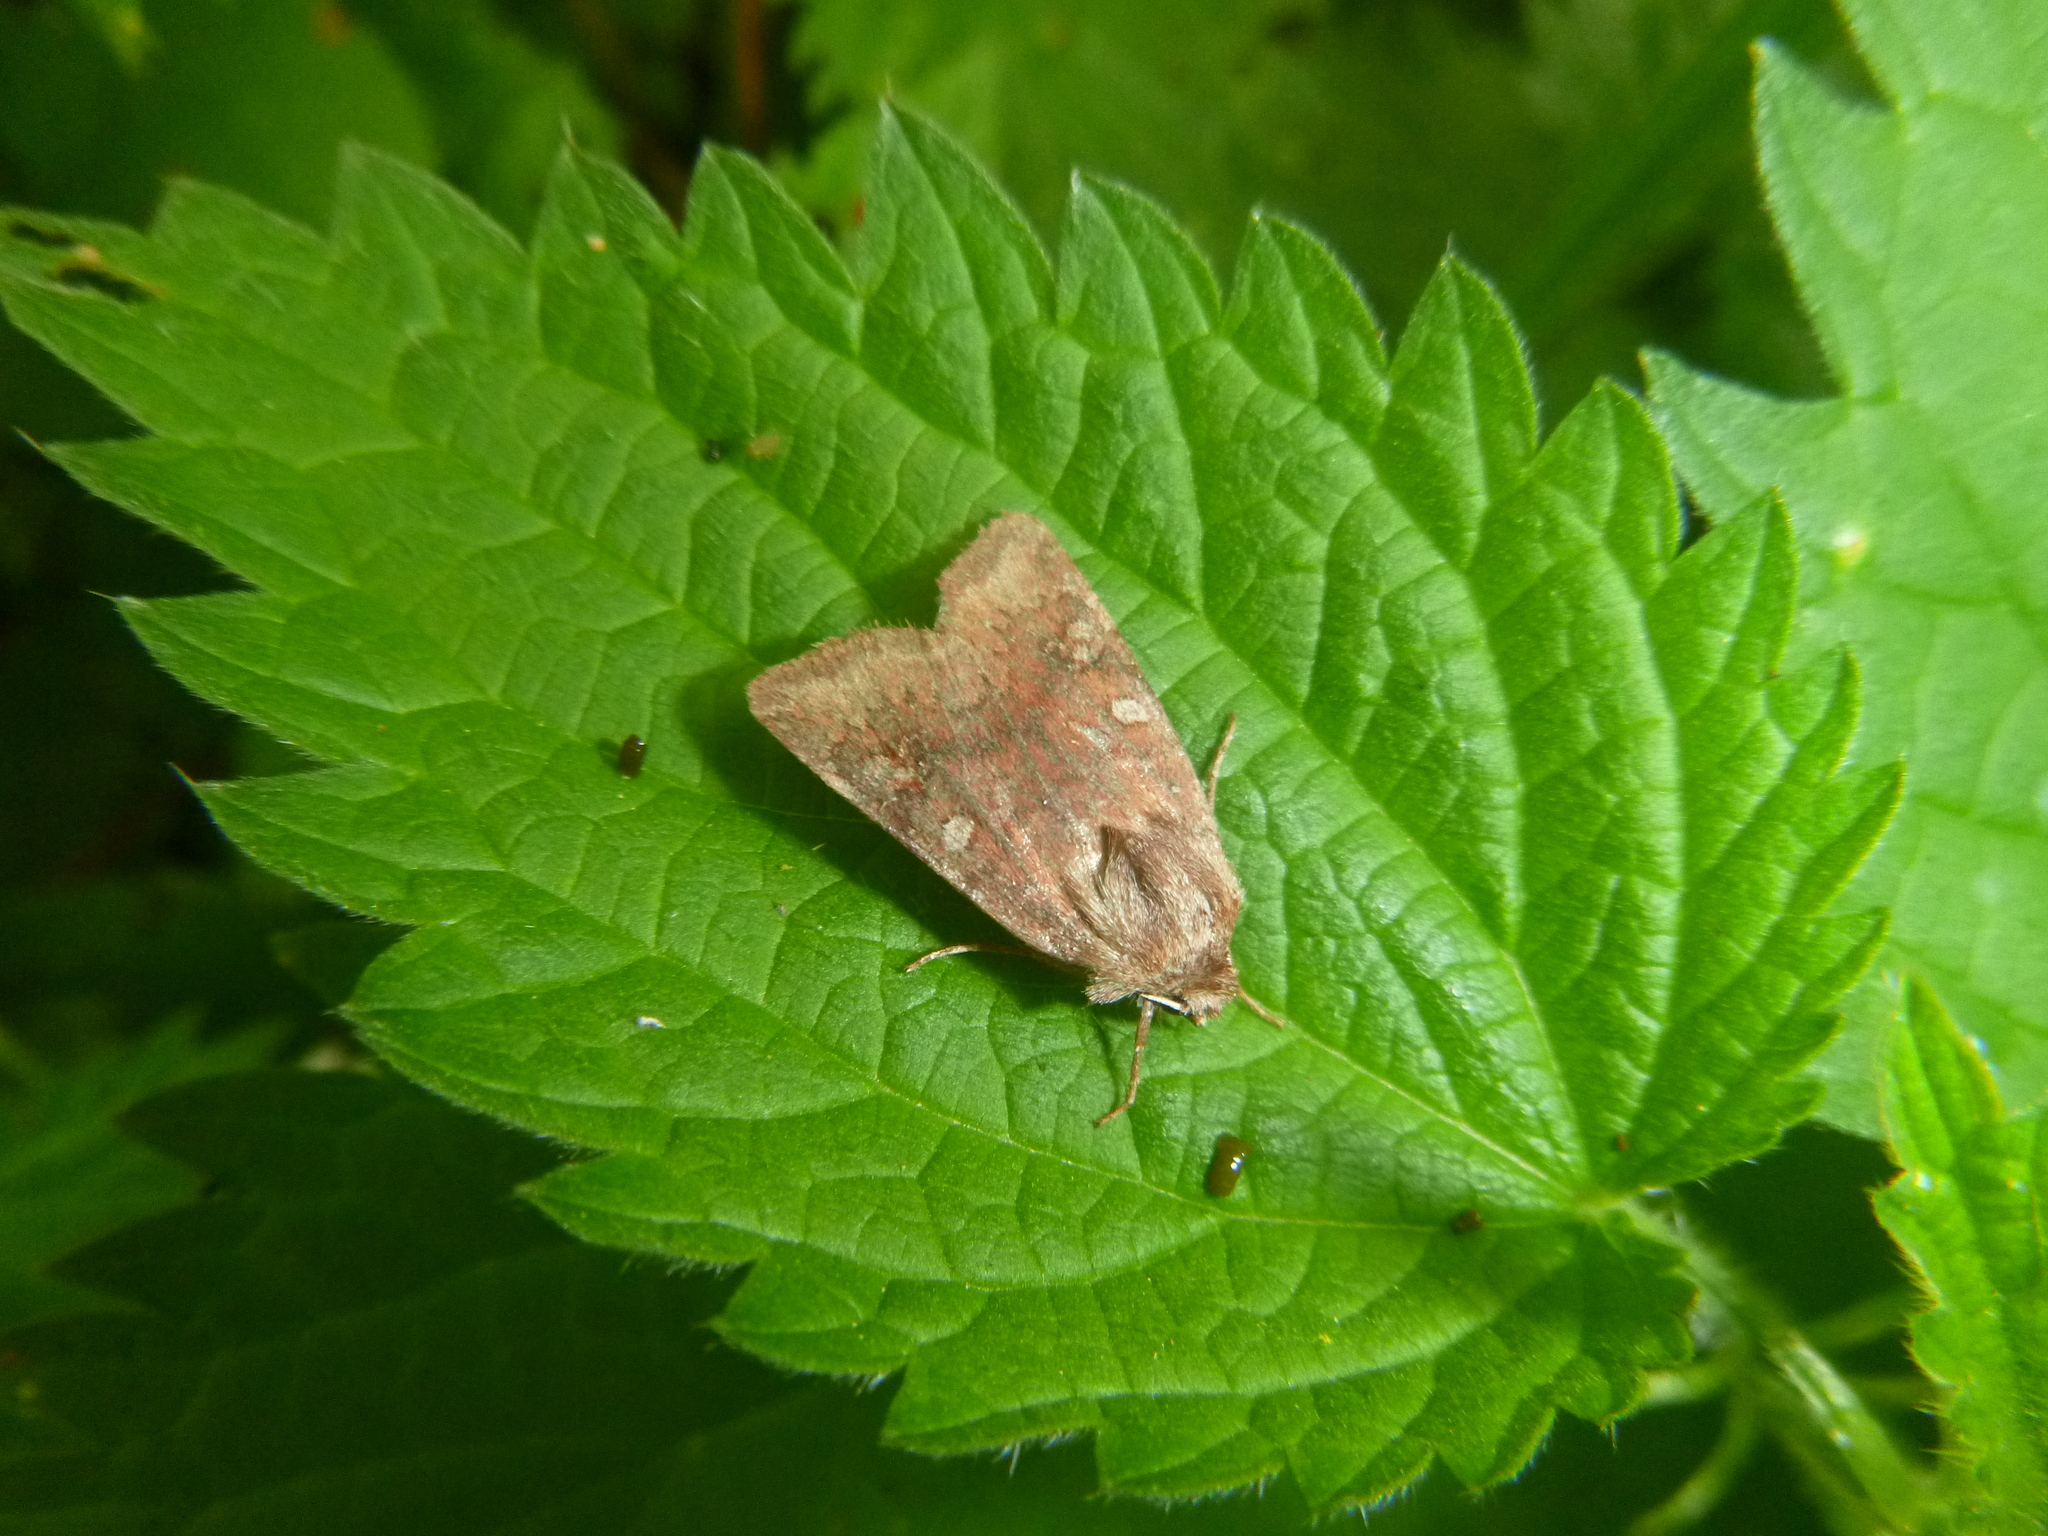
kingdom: Animalia
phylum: Arthropoda
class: Insecta
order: Lepidoptera
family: Noctuidae
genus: Cerastis
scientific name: Cerastis leucographa
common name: White-marked
